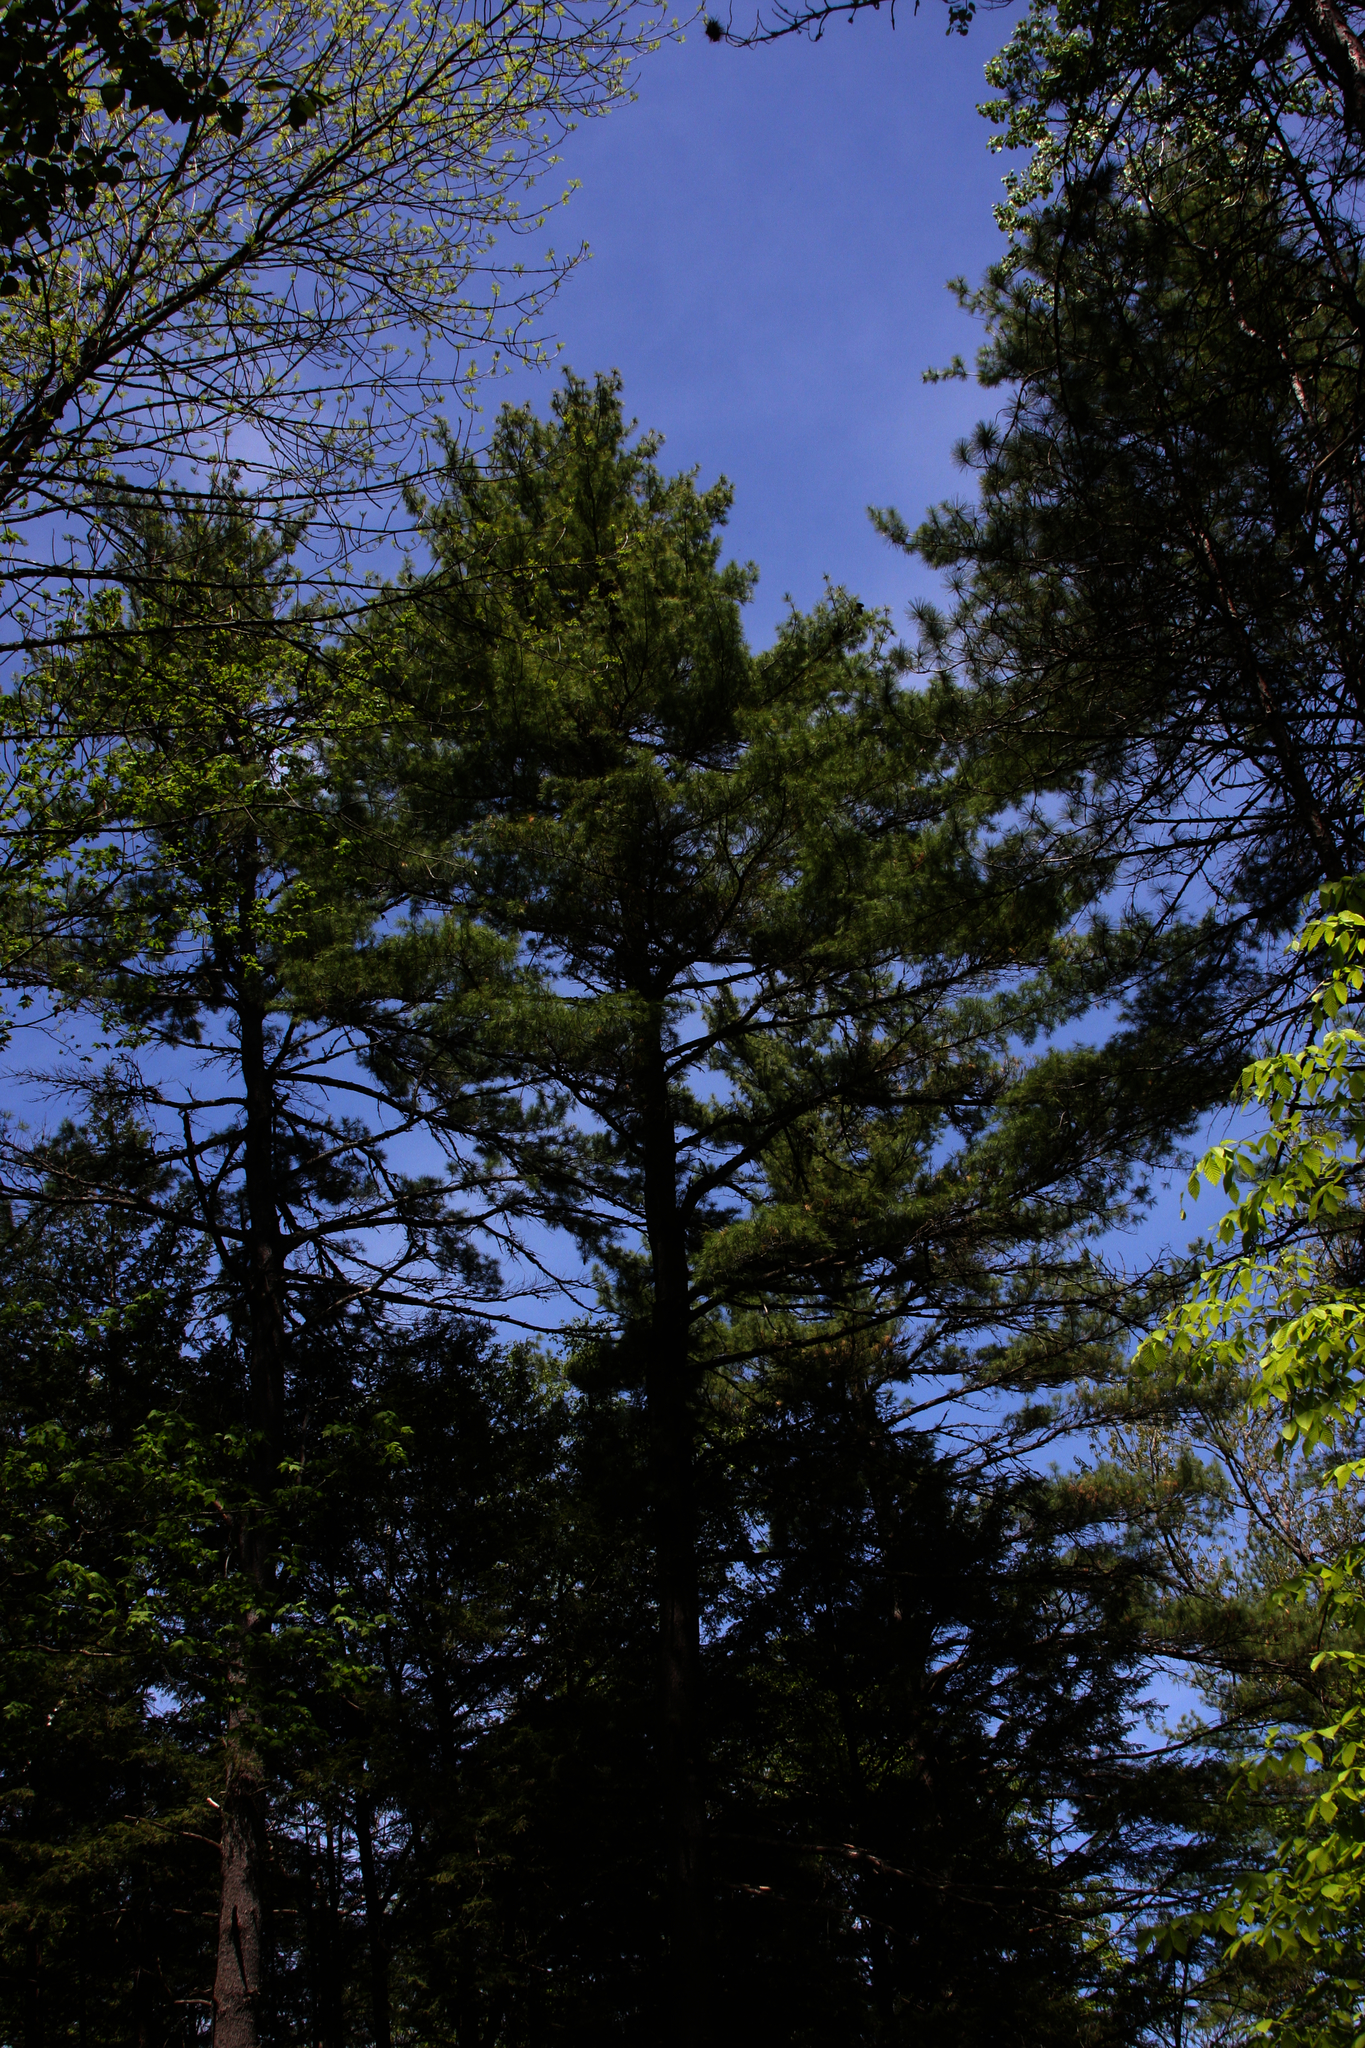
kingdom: Plantae
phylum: Tracheophyta
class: Pinopsida
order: Pinales
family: Pinaceae
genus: Pinus
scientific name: Pinus strobus
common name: Weymouth pine
